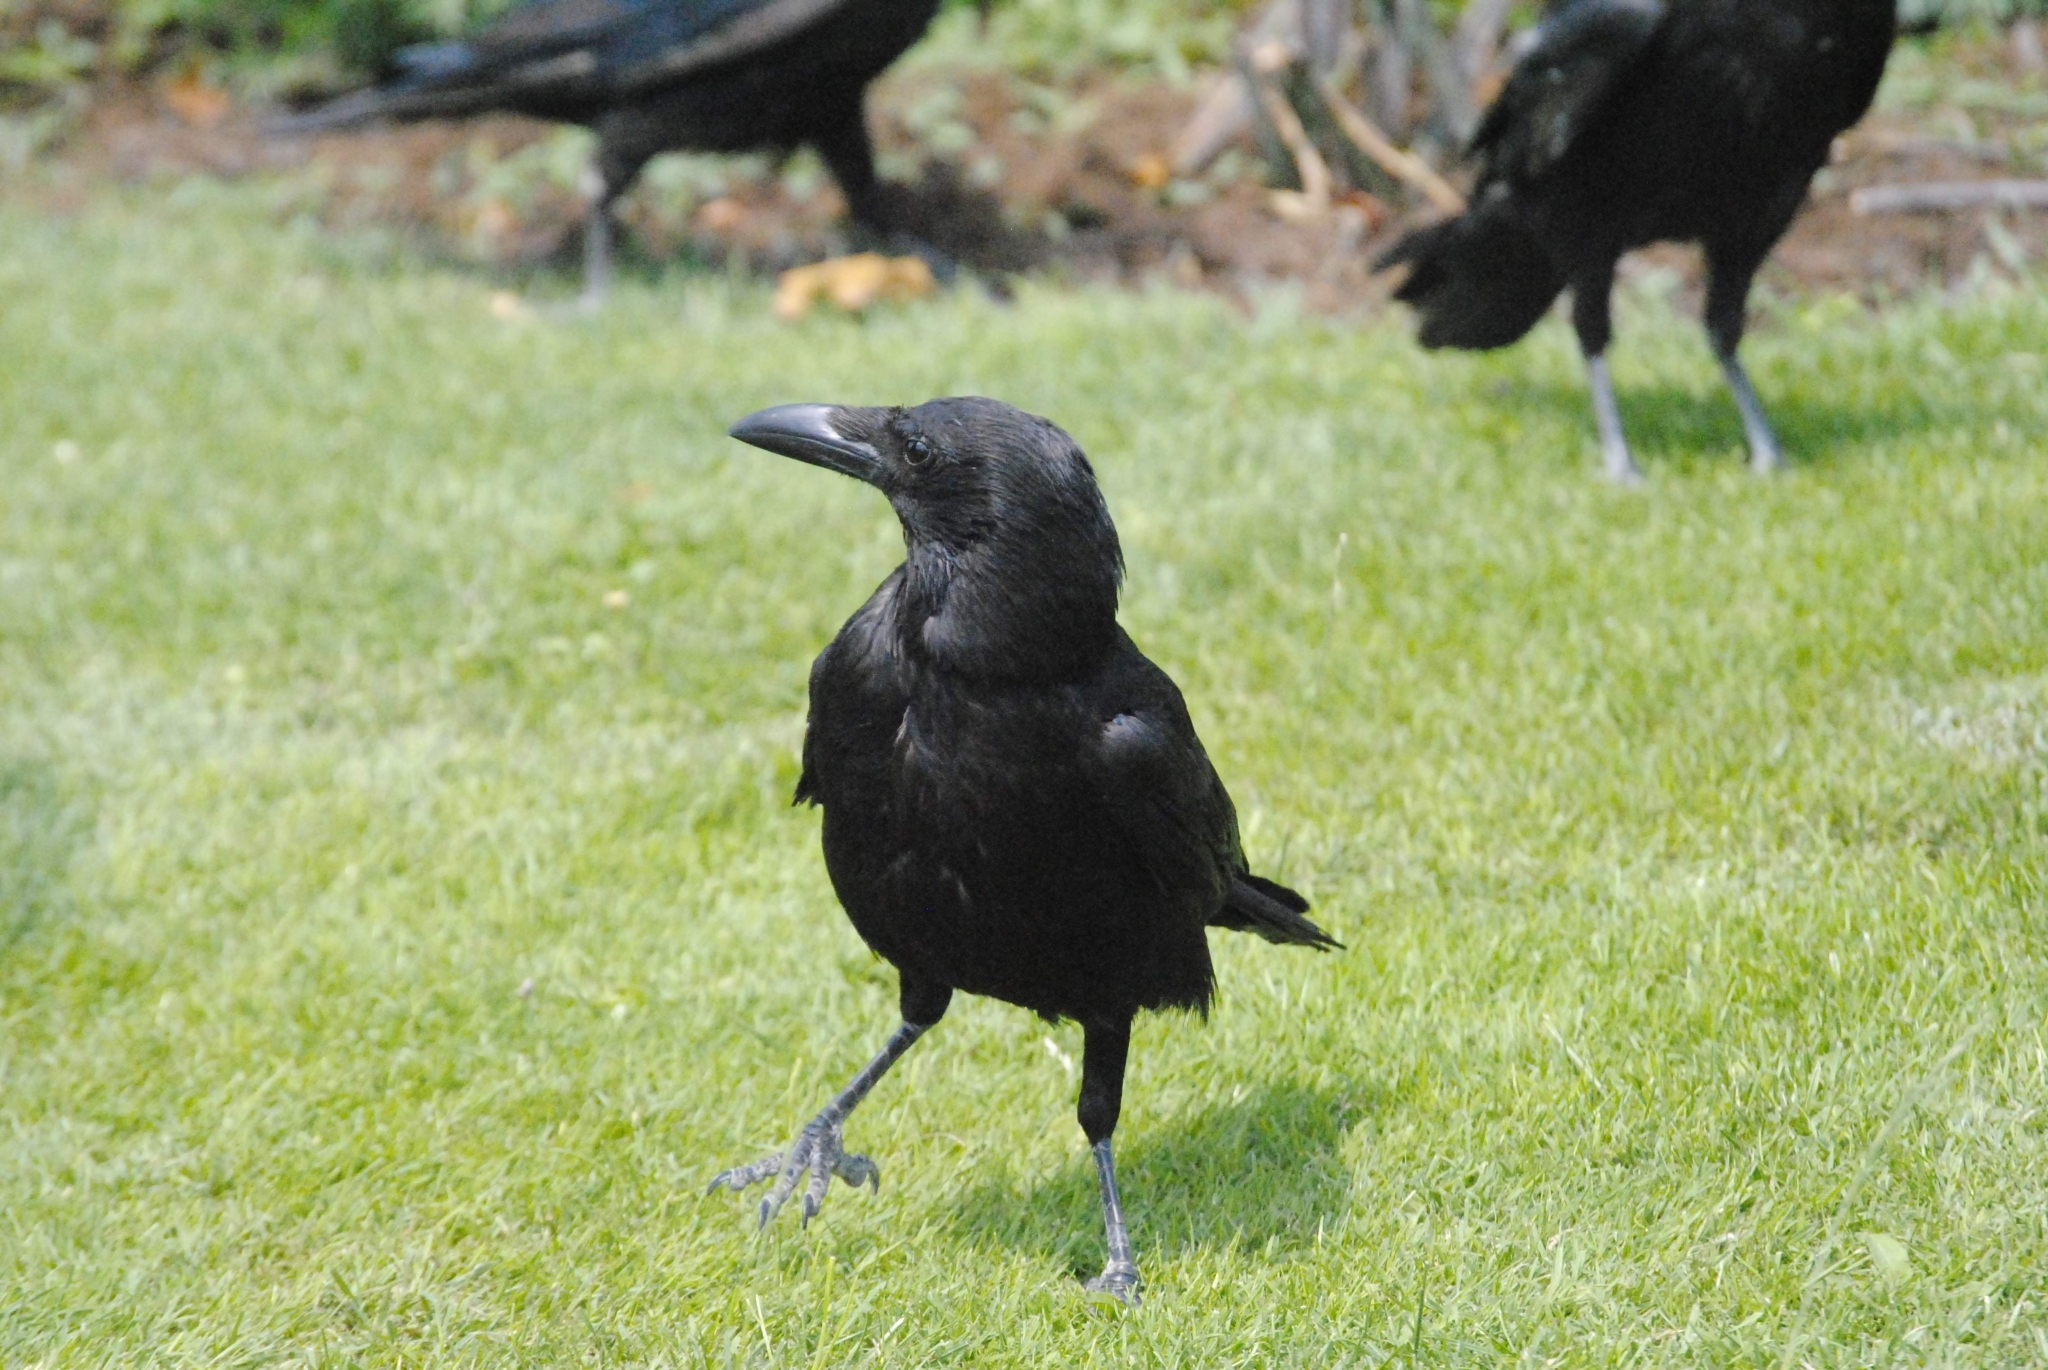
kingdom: Animalia
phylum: Chordata
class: Aves
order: Passeriformes
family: Corvidae
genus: Corvus
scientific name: Corvus corone
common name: Carrion crow
